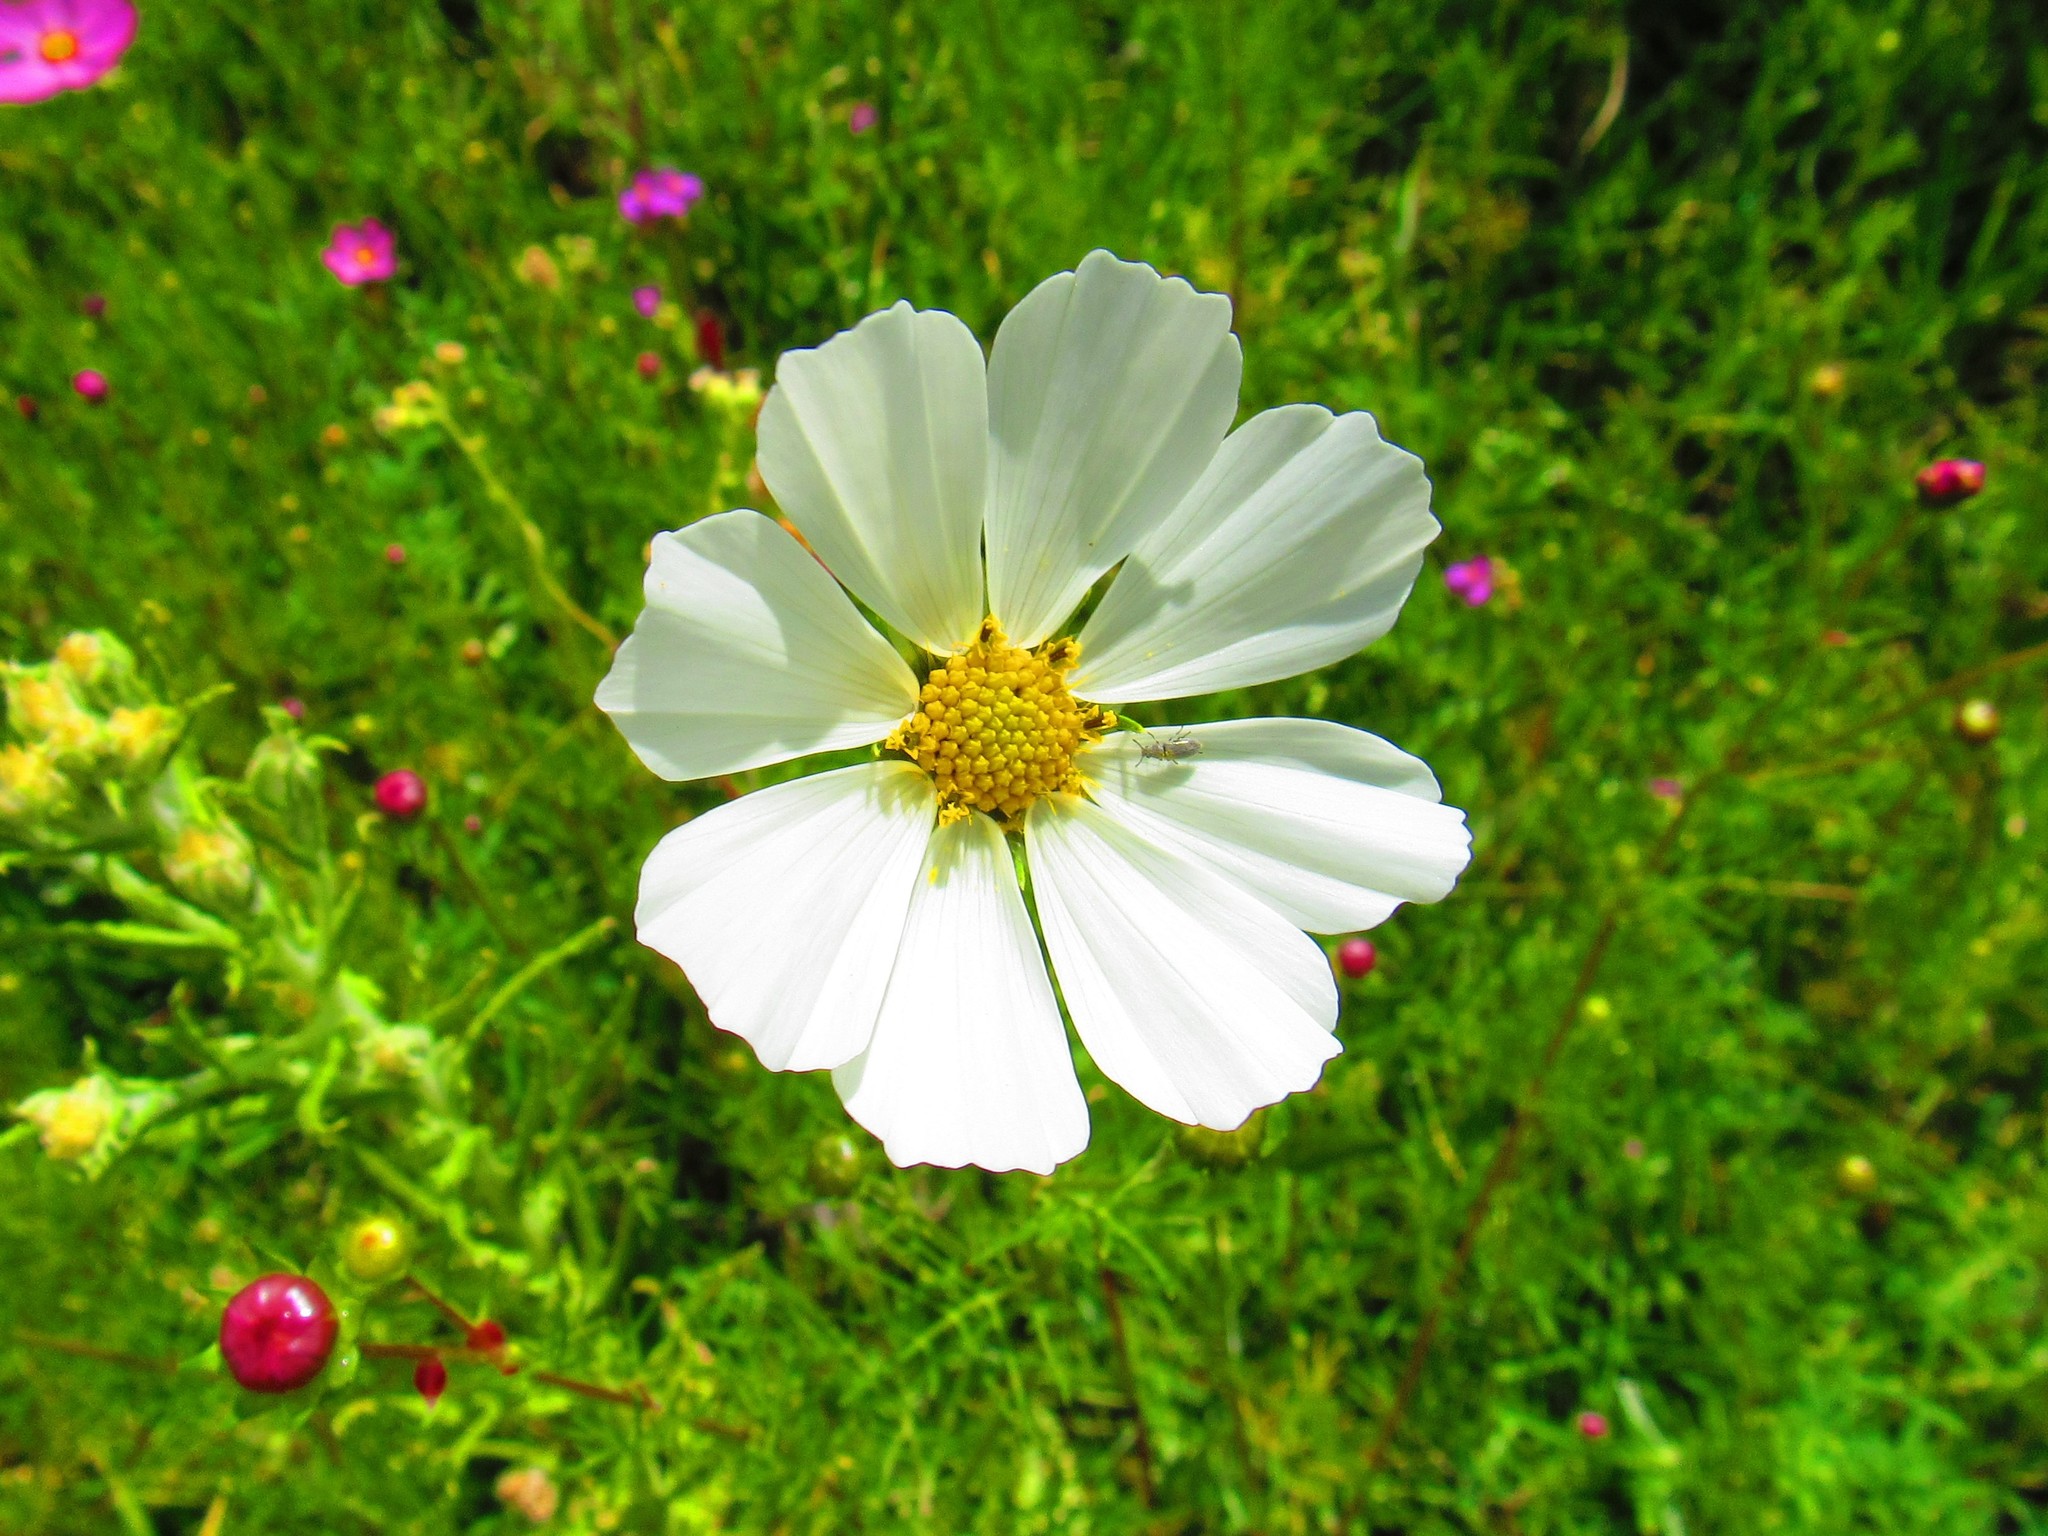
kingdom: Plantae
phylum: Tracheophyta
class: Magnoliopsida
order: Asterales
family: Asteraceae
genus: Cosmos
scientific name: Cosmos bipinnatus
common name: Garden cosmos
